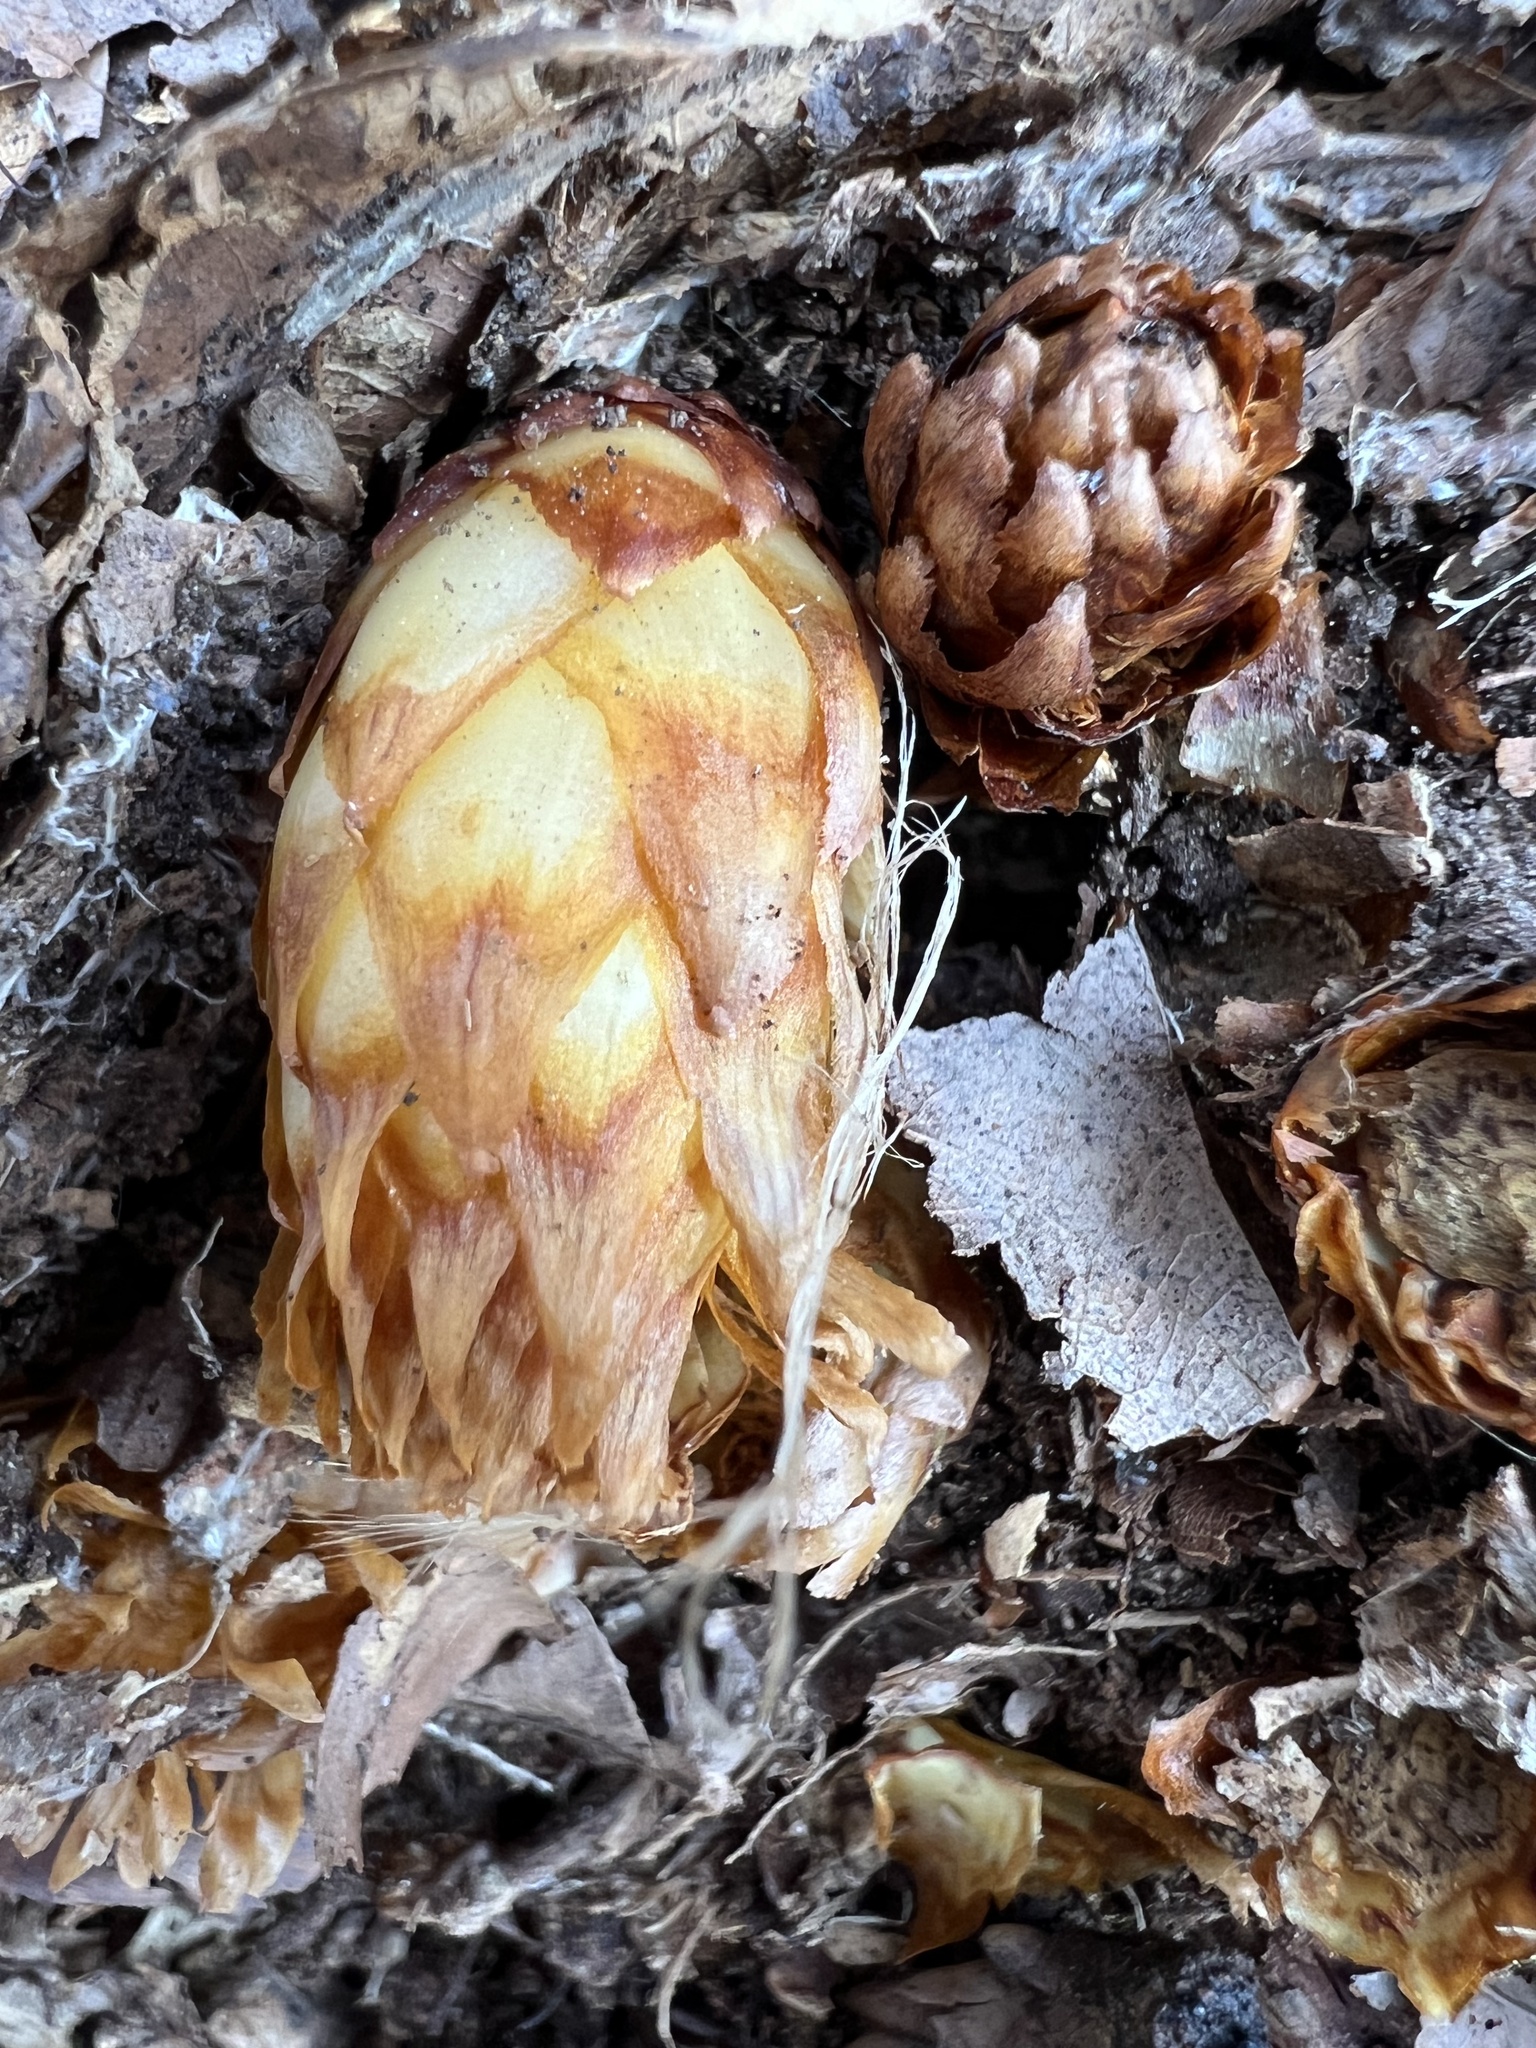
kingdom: Plantae
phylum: Tracheophyta
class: Magnoliopsida
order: Lamiales
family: Orobanchaceae
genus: Conopholis
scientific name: Conopholis americana
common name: American cancer-root
